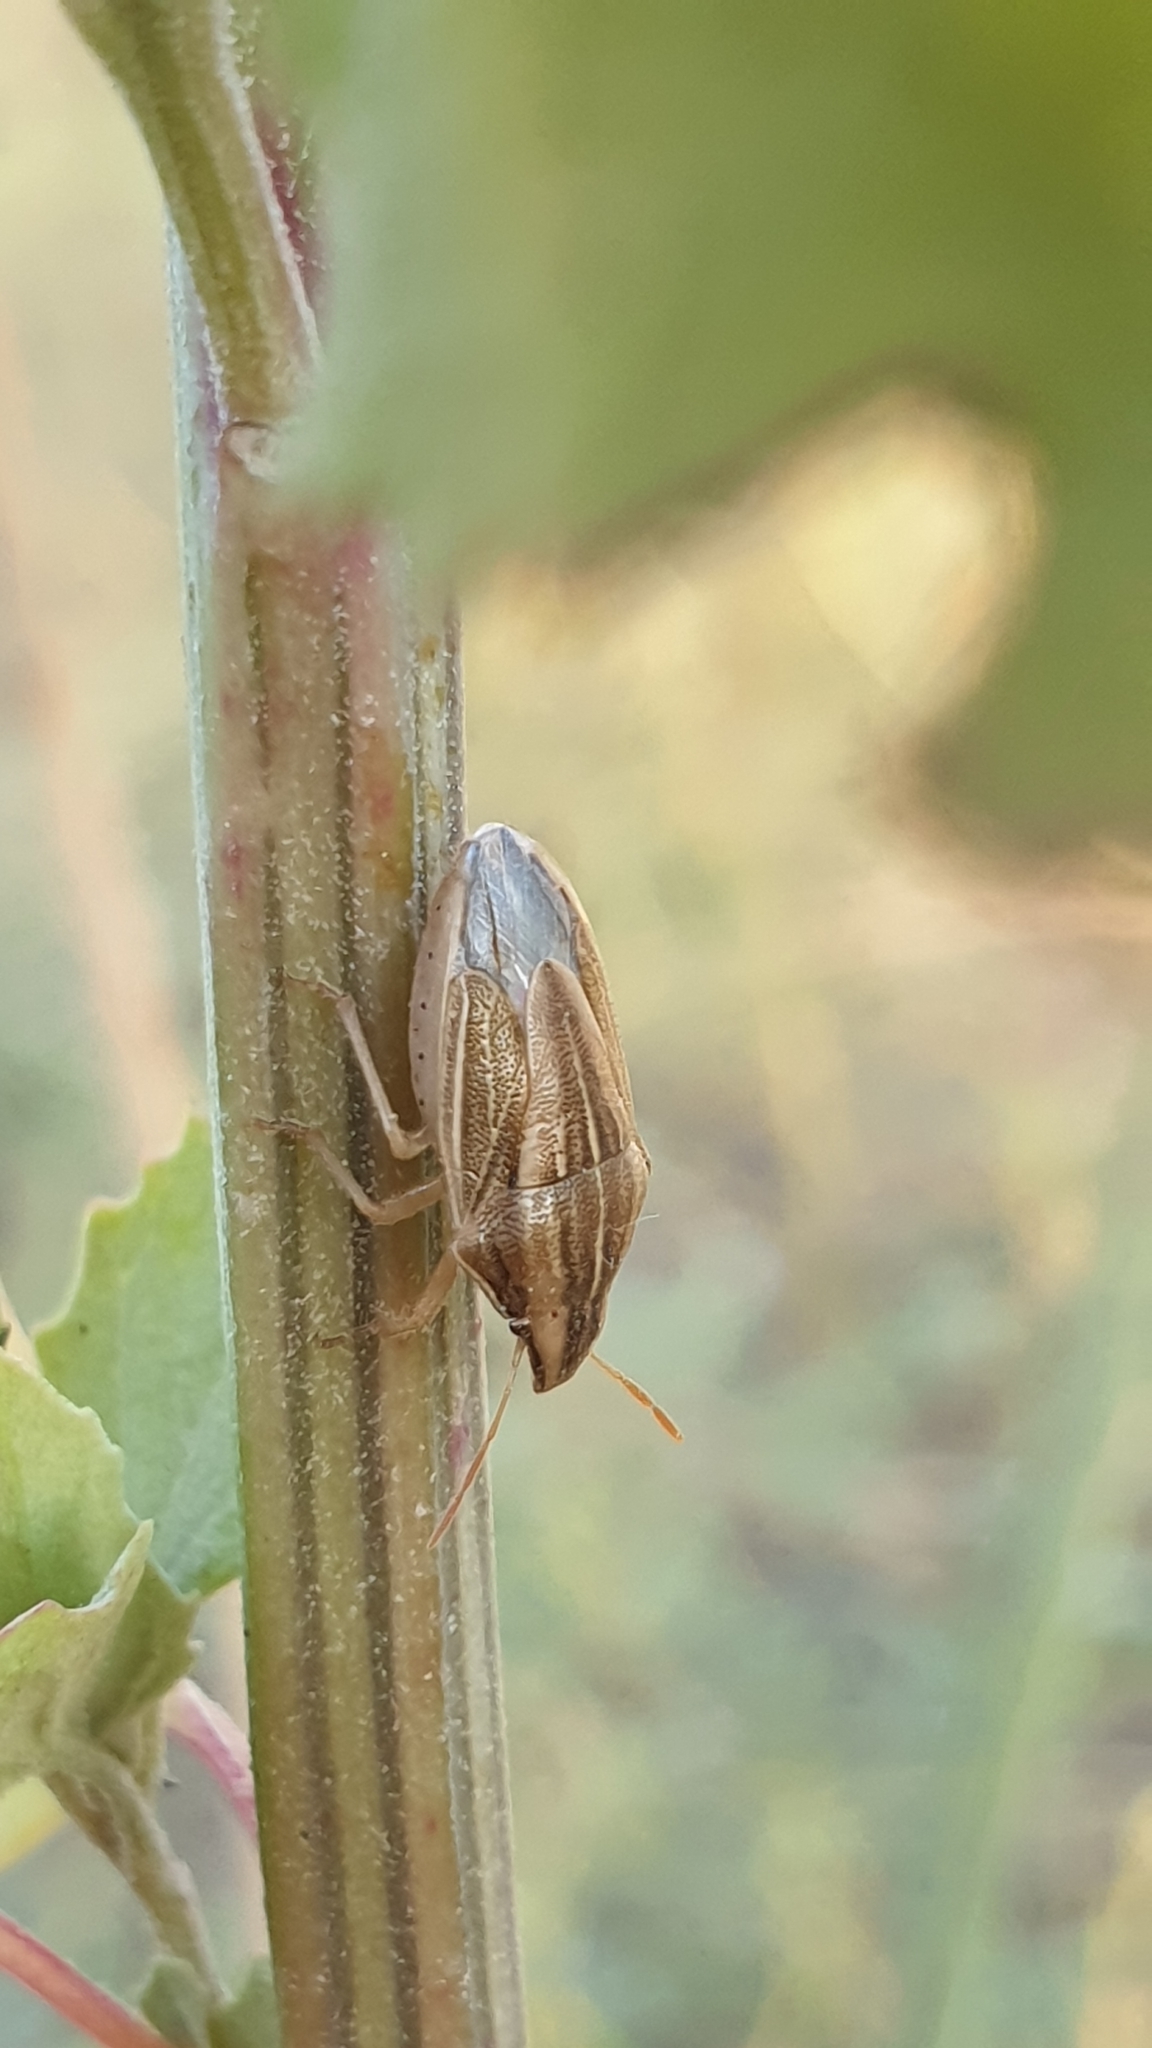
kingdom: Animalia
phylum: Arthropoda
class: Insecta
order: Hemiptera
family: Pentatomidae
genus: Aelia
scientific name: Aelia acuminata
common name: Bishop's mitre
